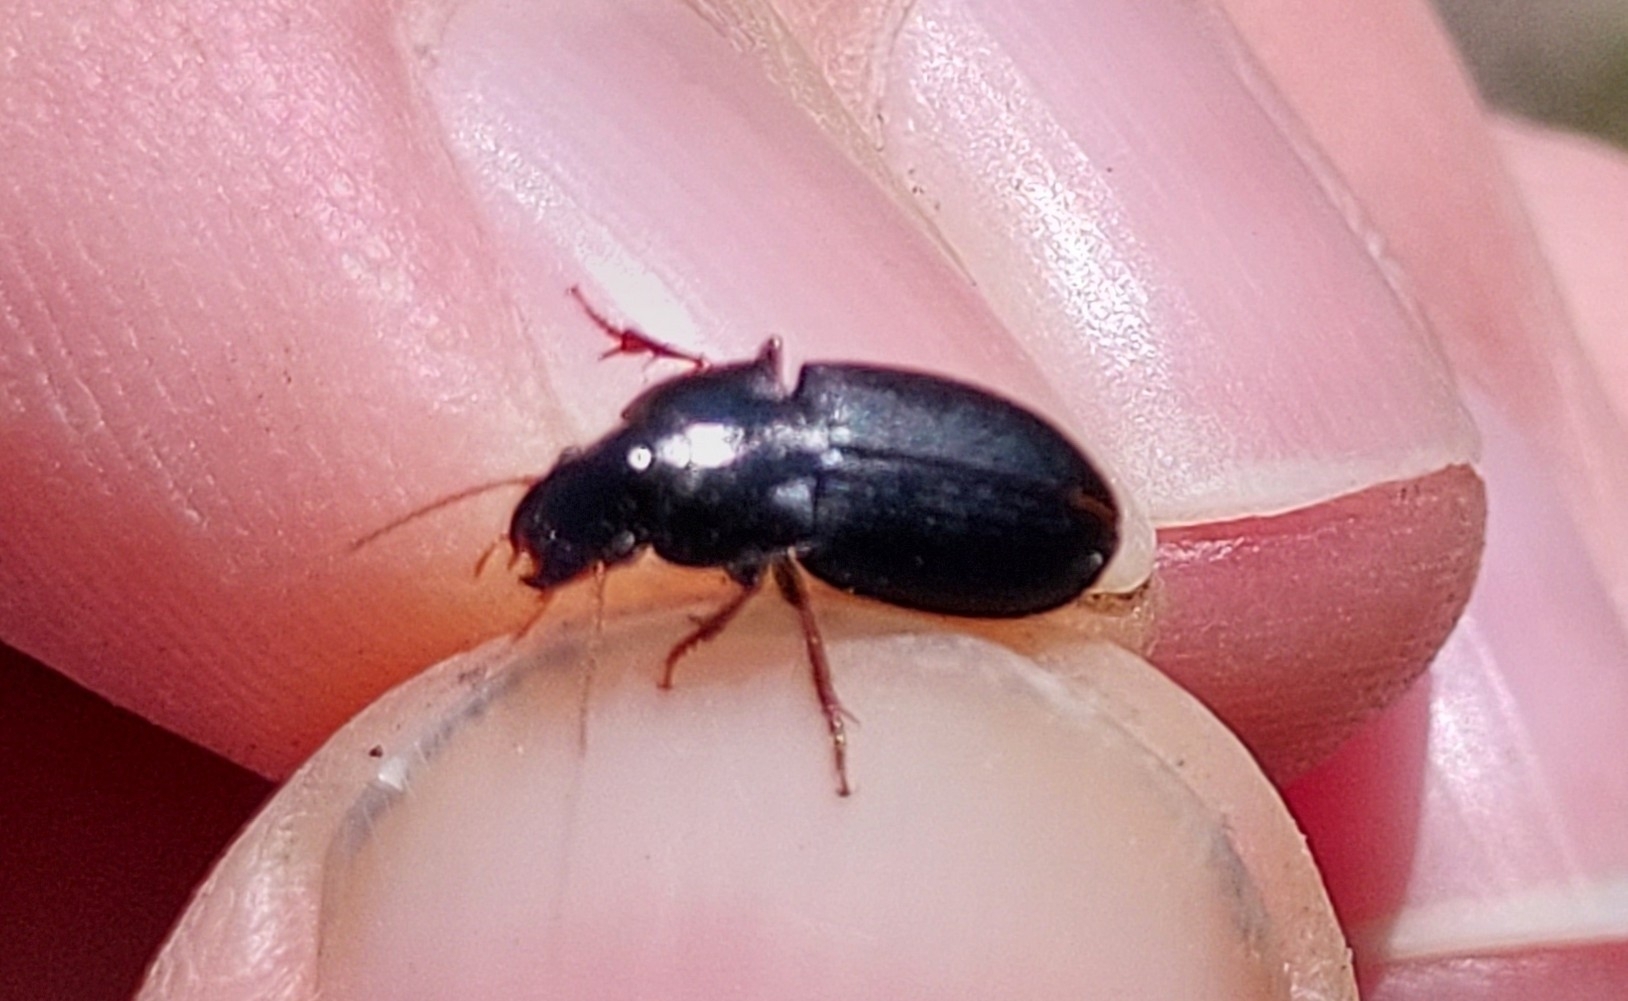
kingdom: Animalia
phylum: Arthropoda
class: Insecta
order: Coleoptera
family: Carabidae
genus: Harpalus
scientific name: Harpalus rubripes
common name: Red-legged harp ground beetle
